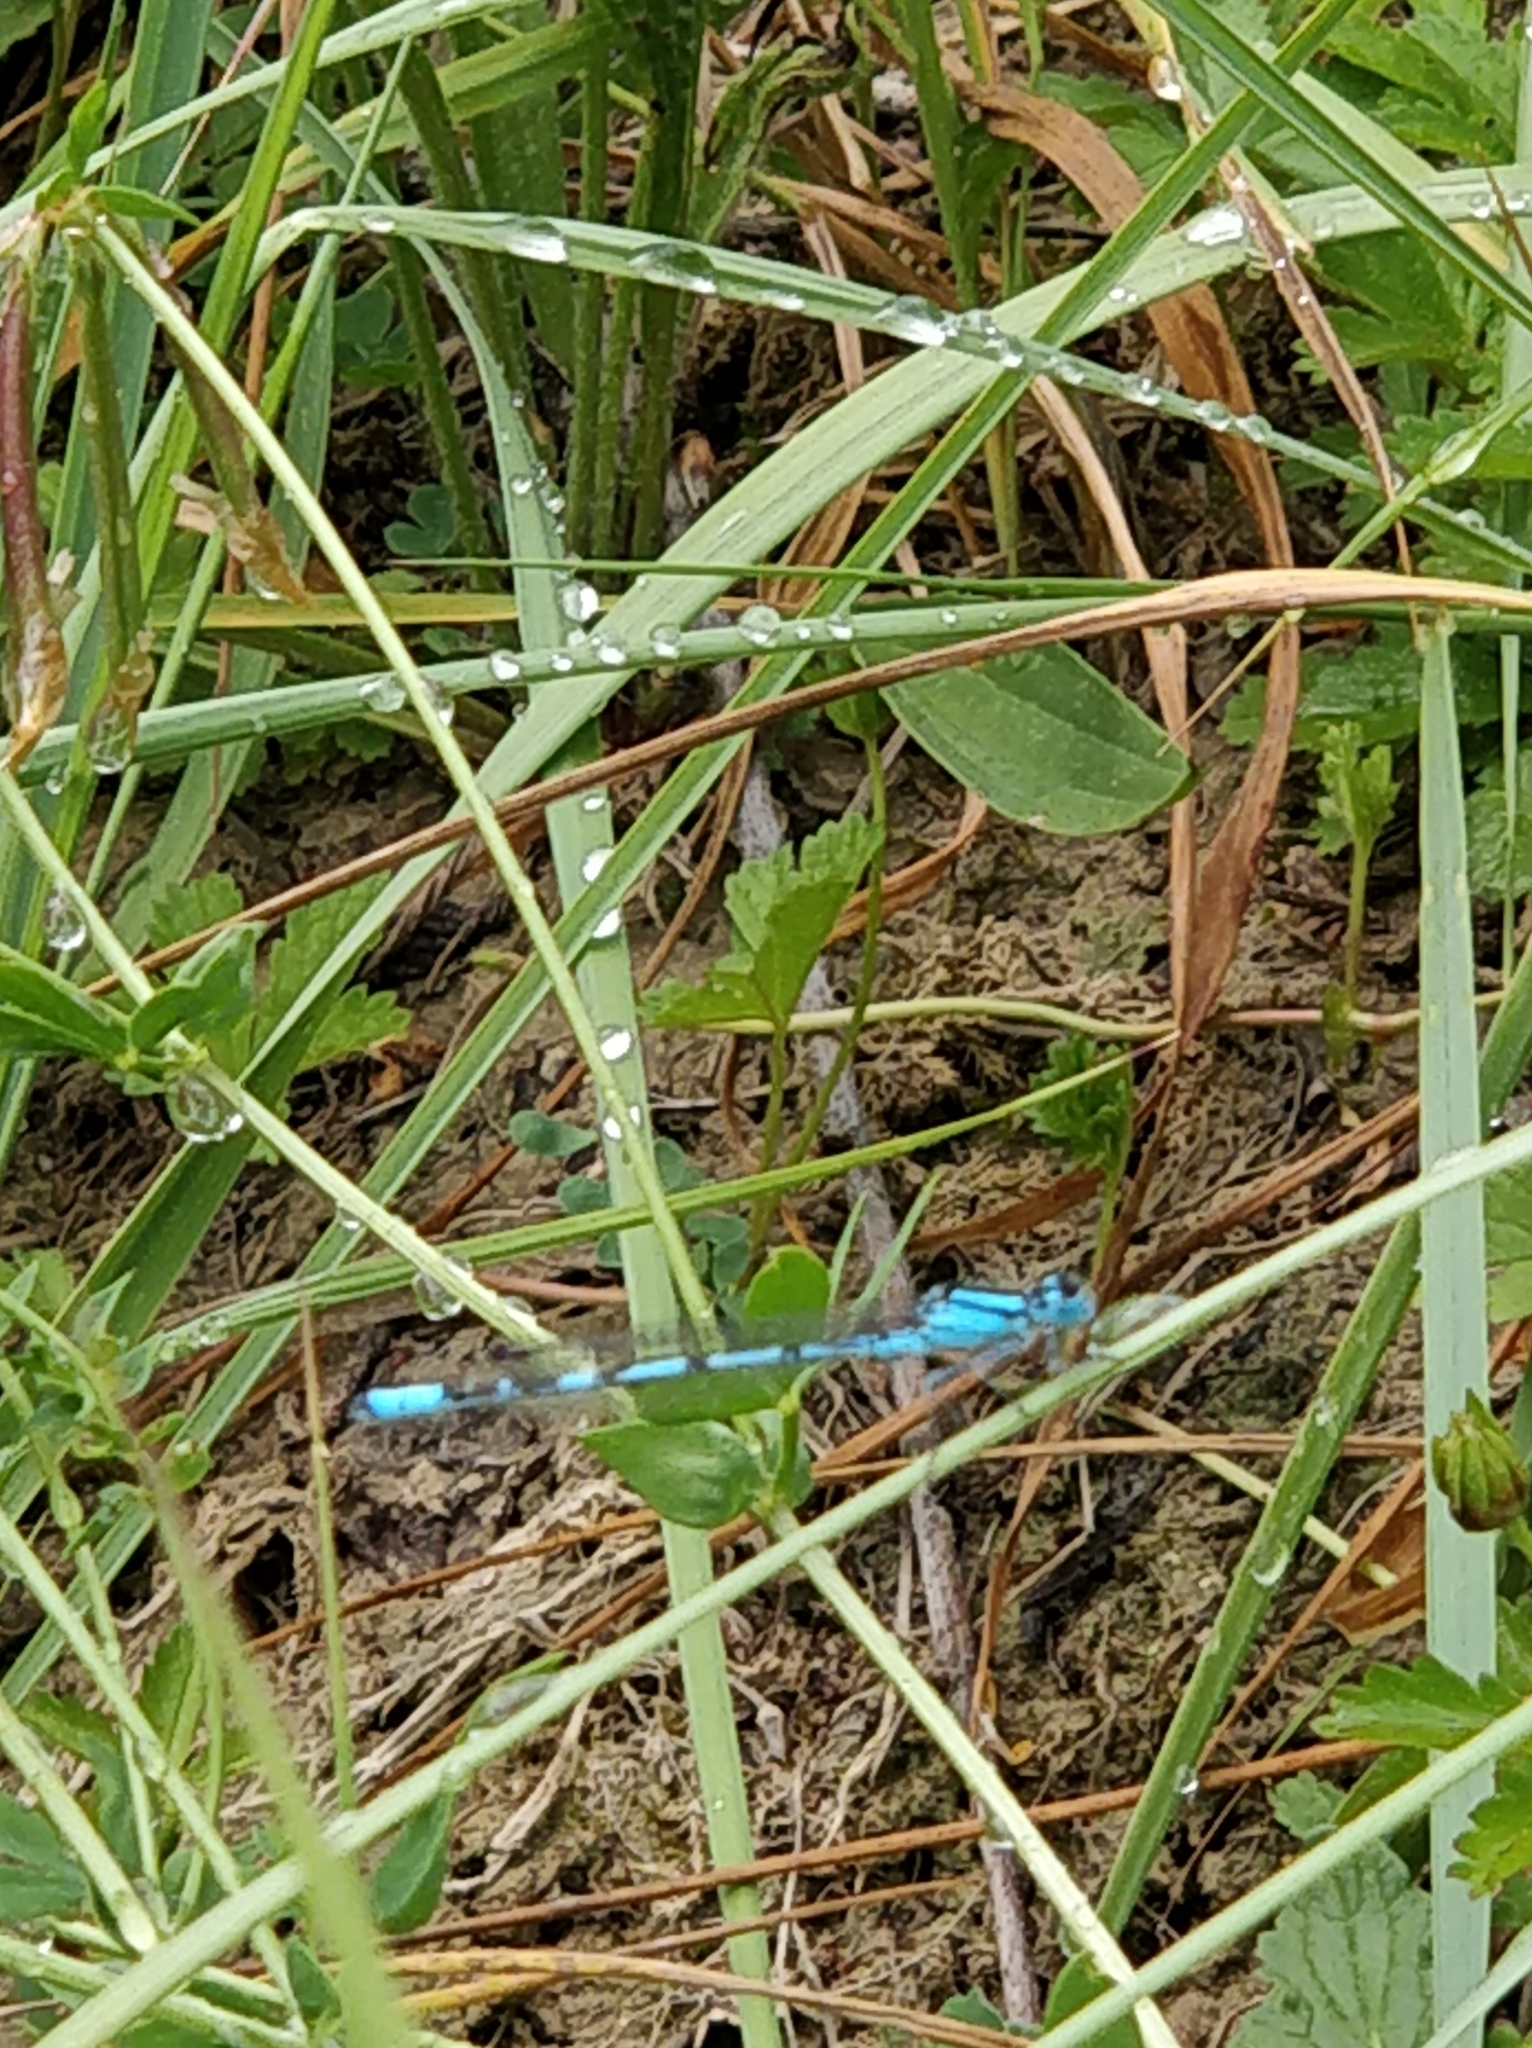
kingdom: Animalia
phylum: Arthropoda
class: Insecta
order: Odonata
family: Coenagrionidae
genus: Enallagma
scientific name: Enallagma cyathigerum
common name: Common blue damselfly
